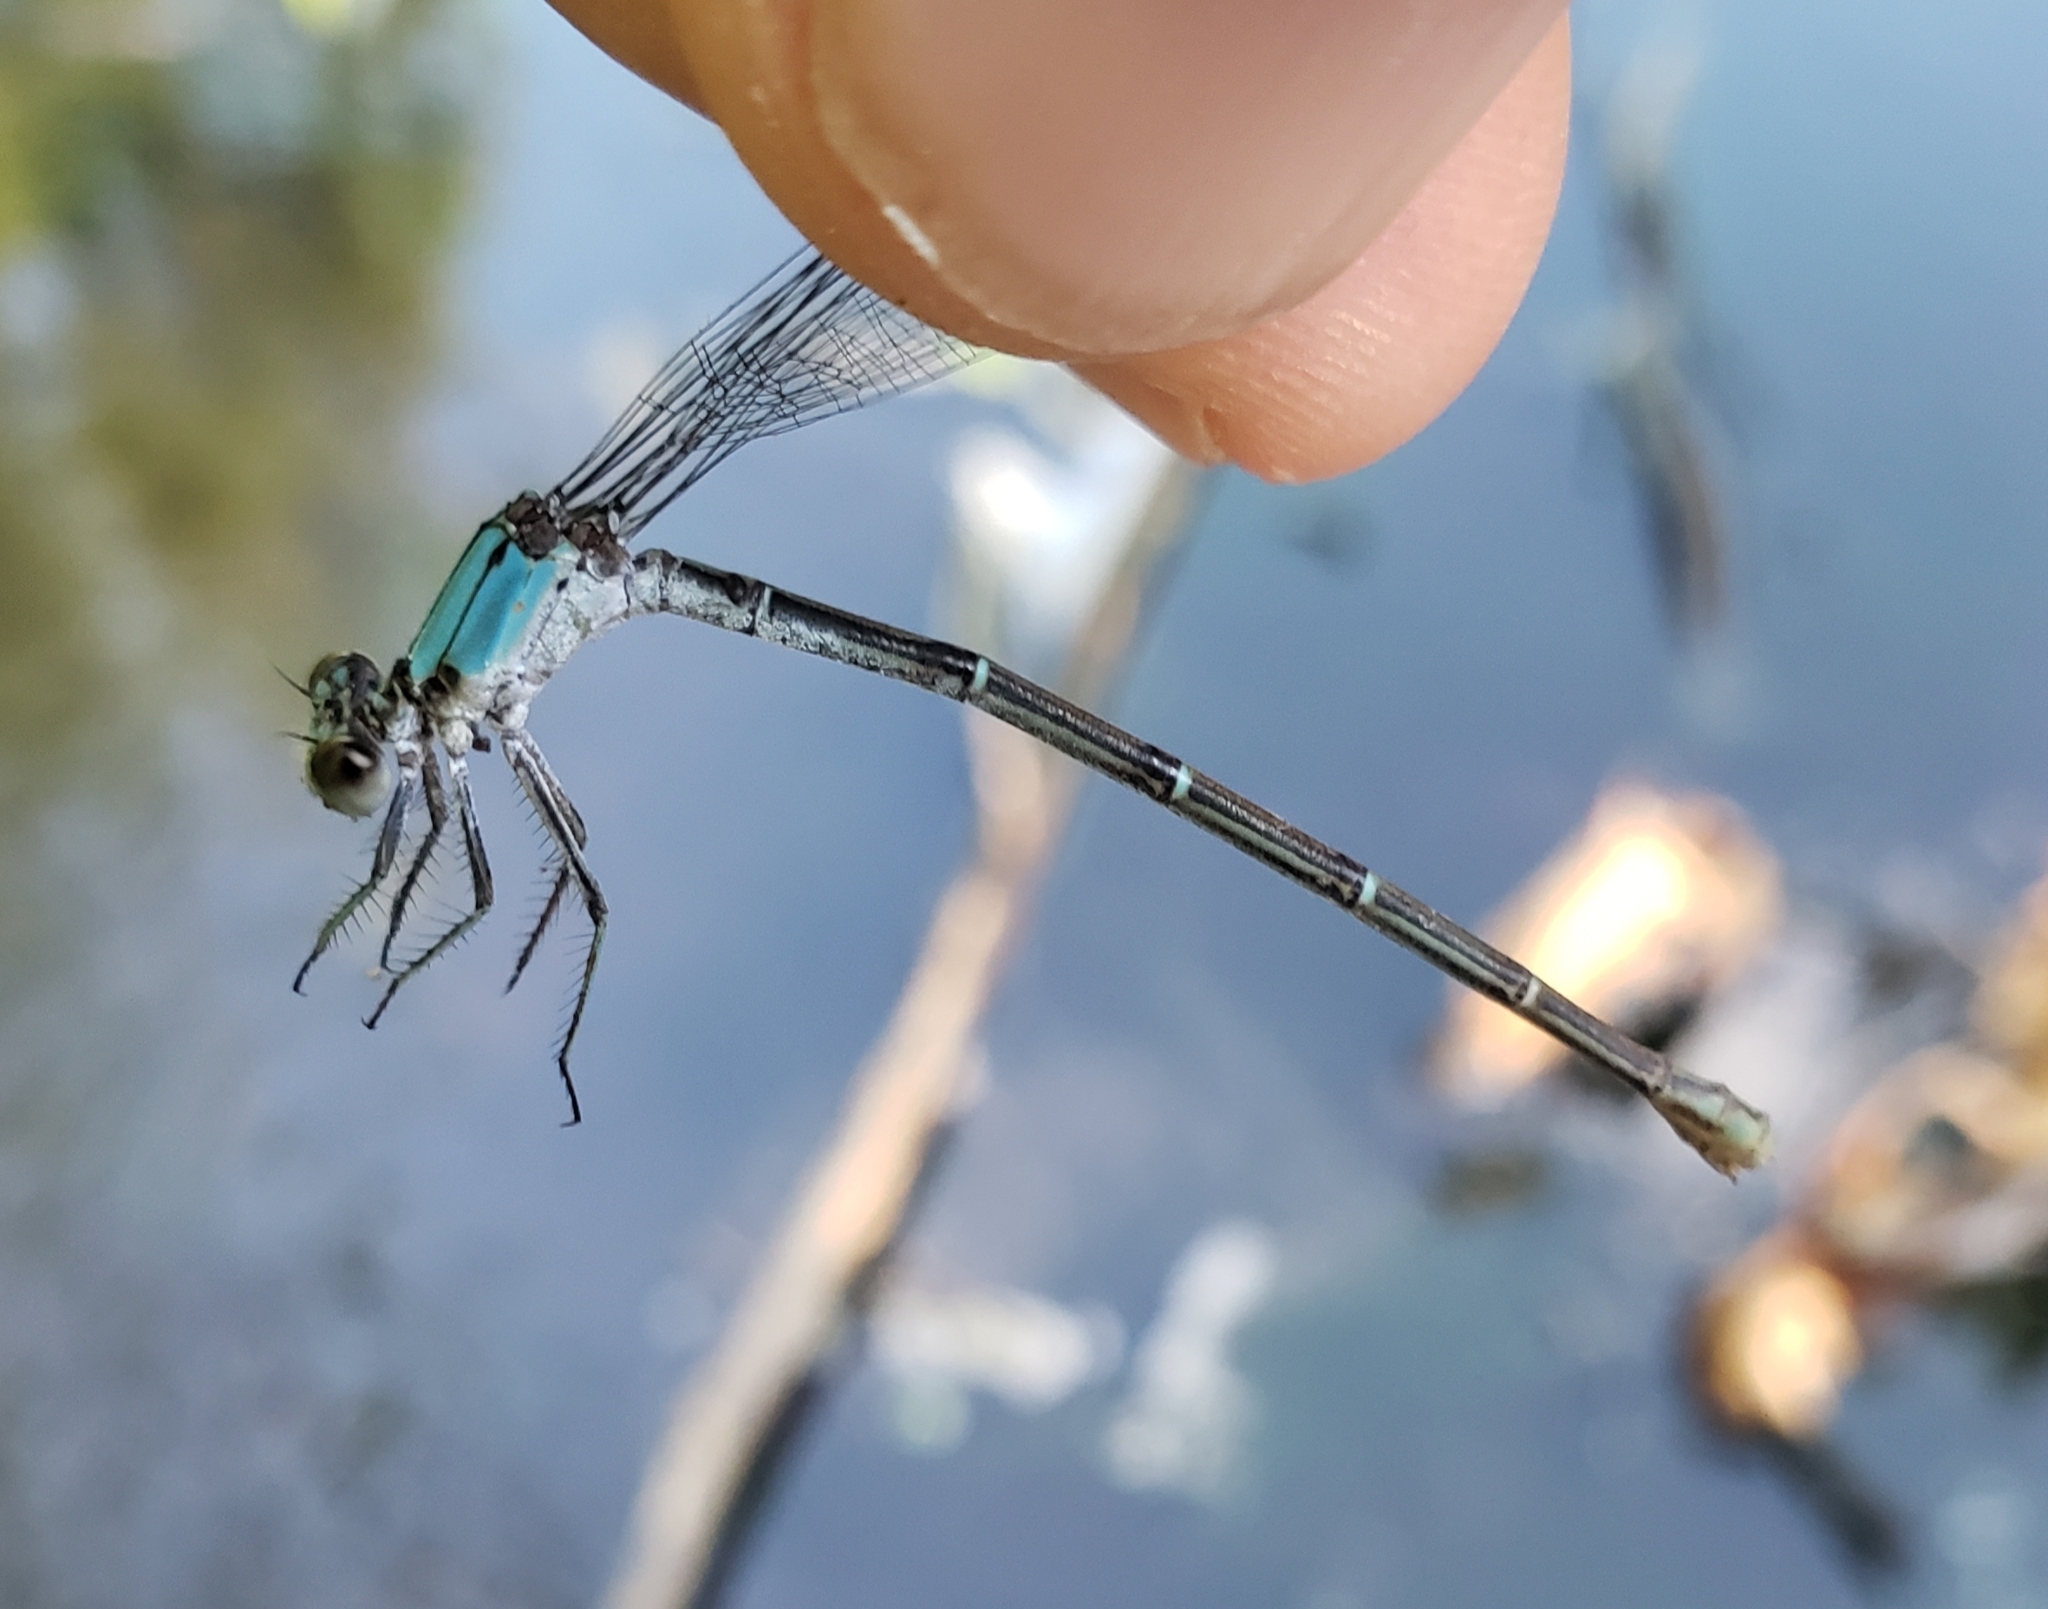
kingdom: Animalia
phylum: Arthropoda
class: Insecta
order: Odonata
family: Coenagrionidae
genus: Argia
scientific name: Argia moesta
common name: Powdered dancer
